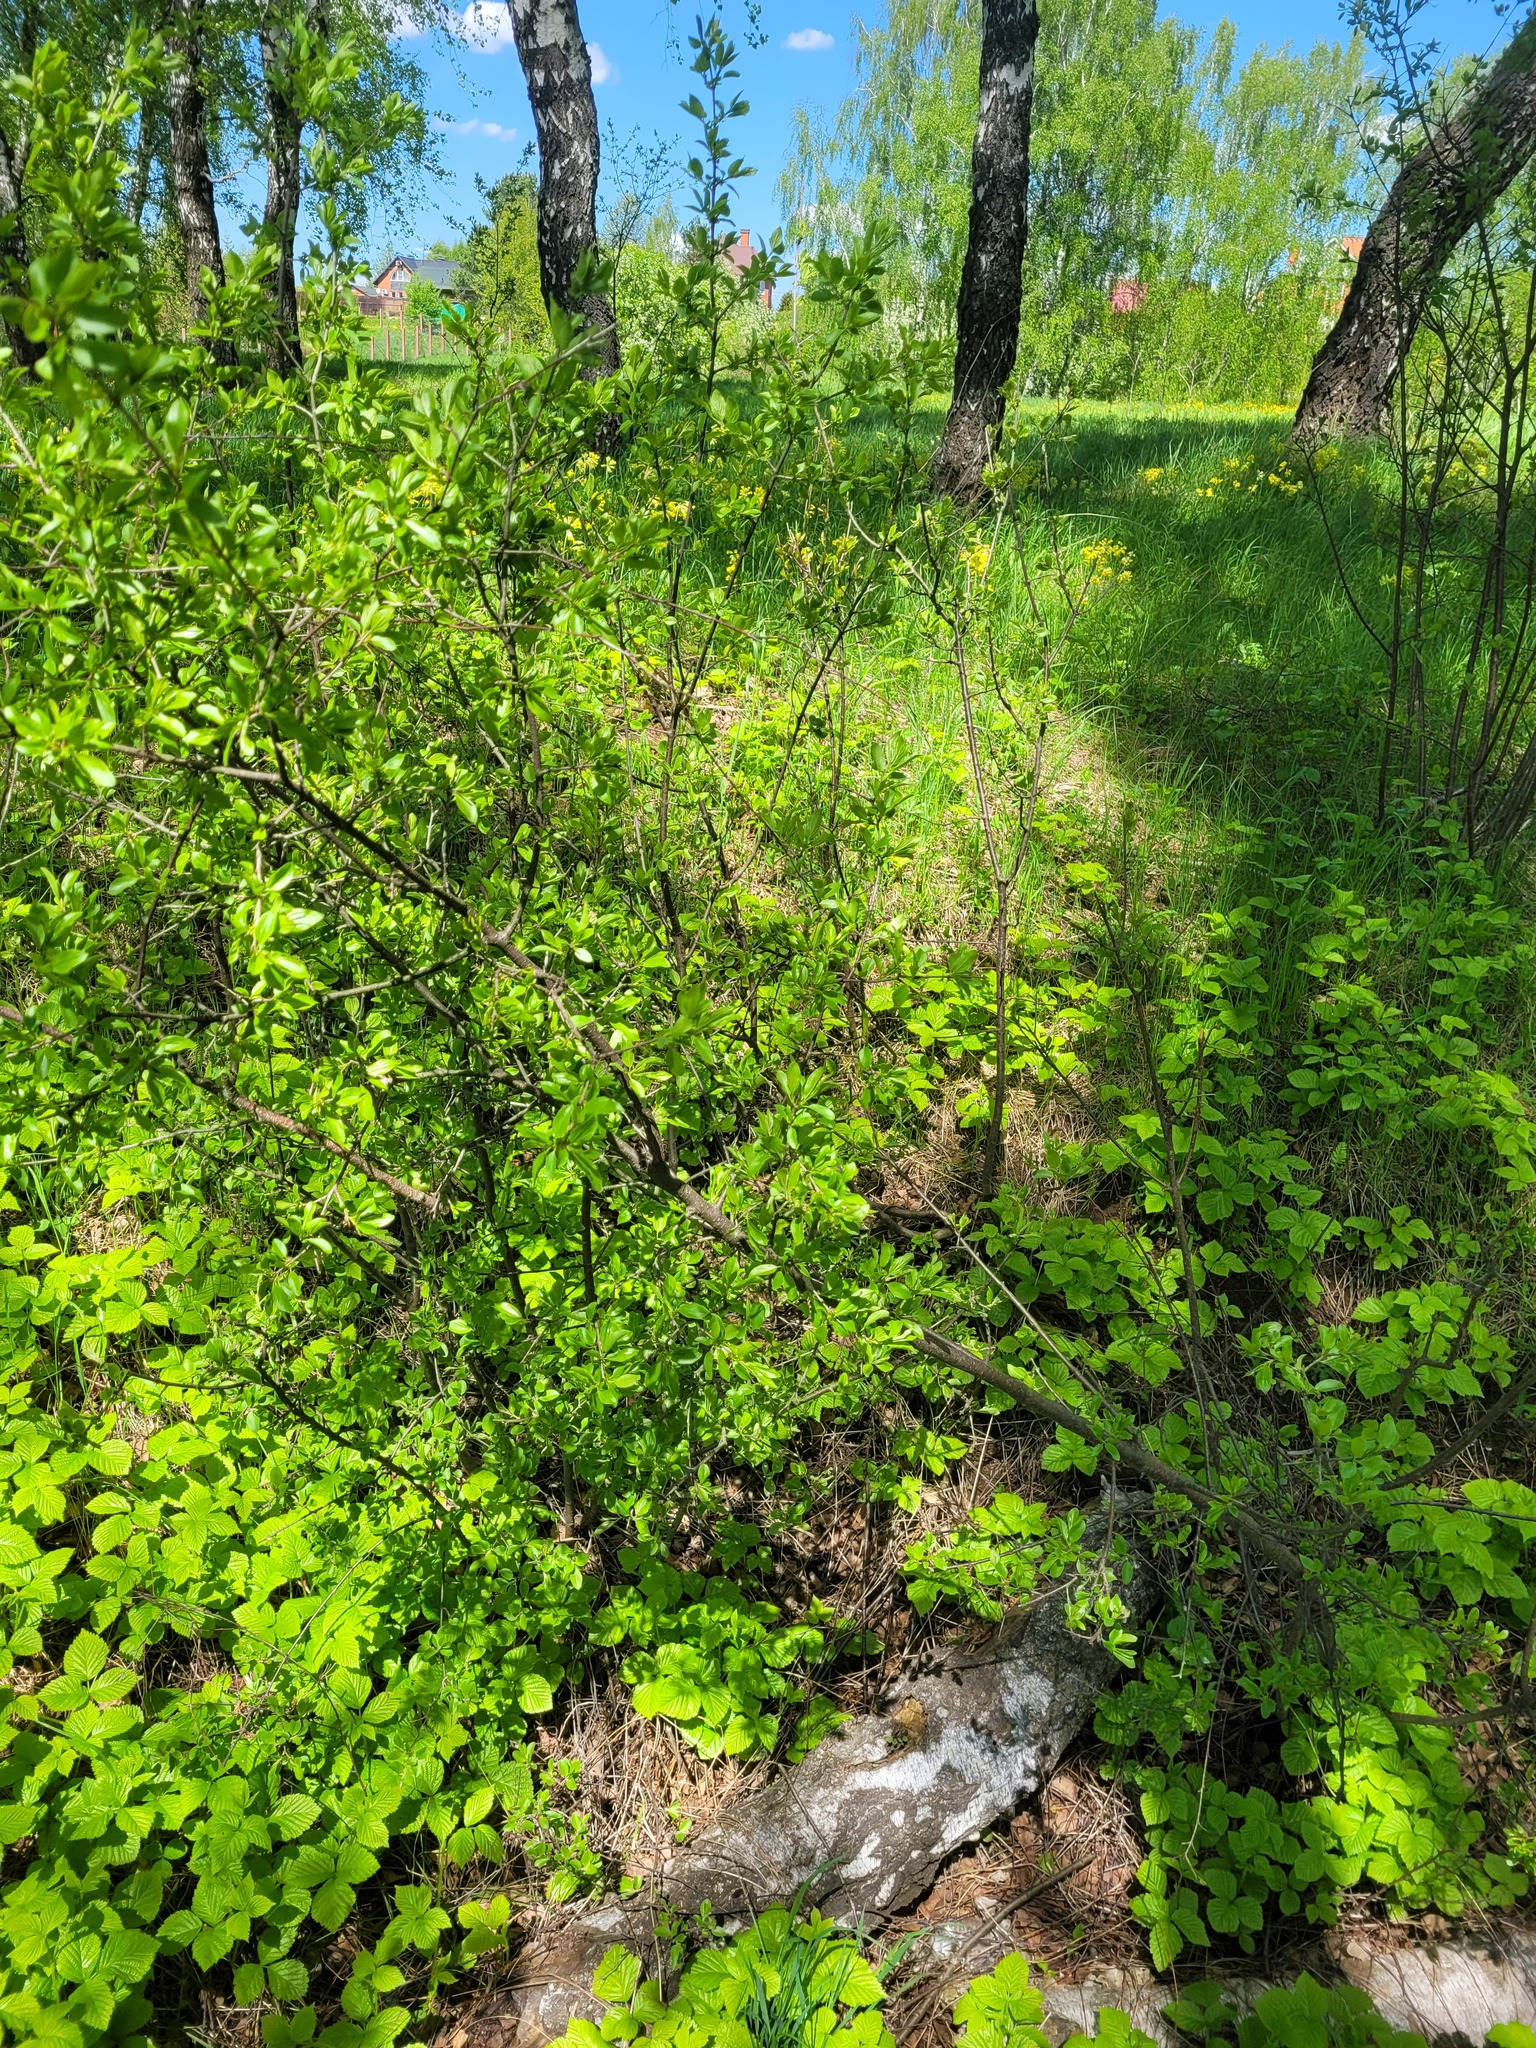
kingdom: Plantae
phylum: Tracheophyta
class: Magnoliopsida
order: Rosales
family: Rhamnaceae
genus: Rhamnus
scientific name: Rhamnus cathartica
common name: Common buckthorn
